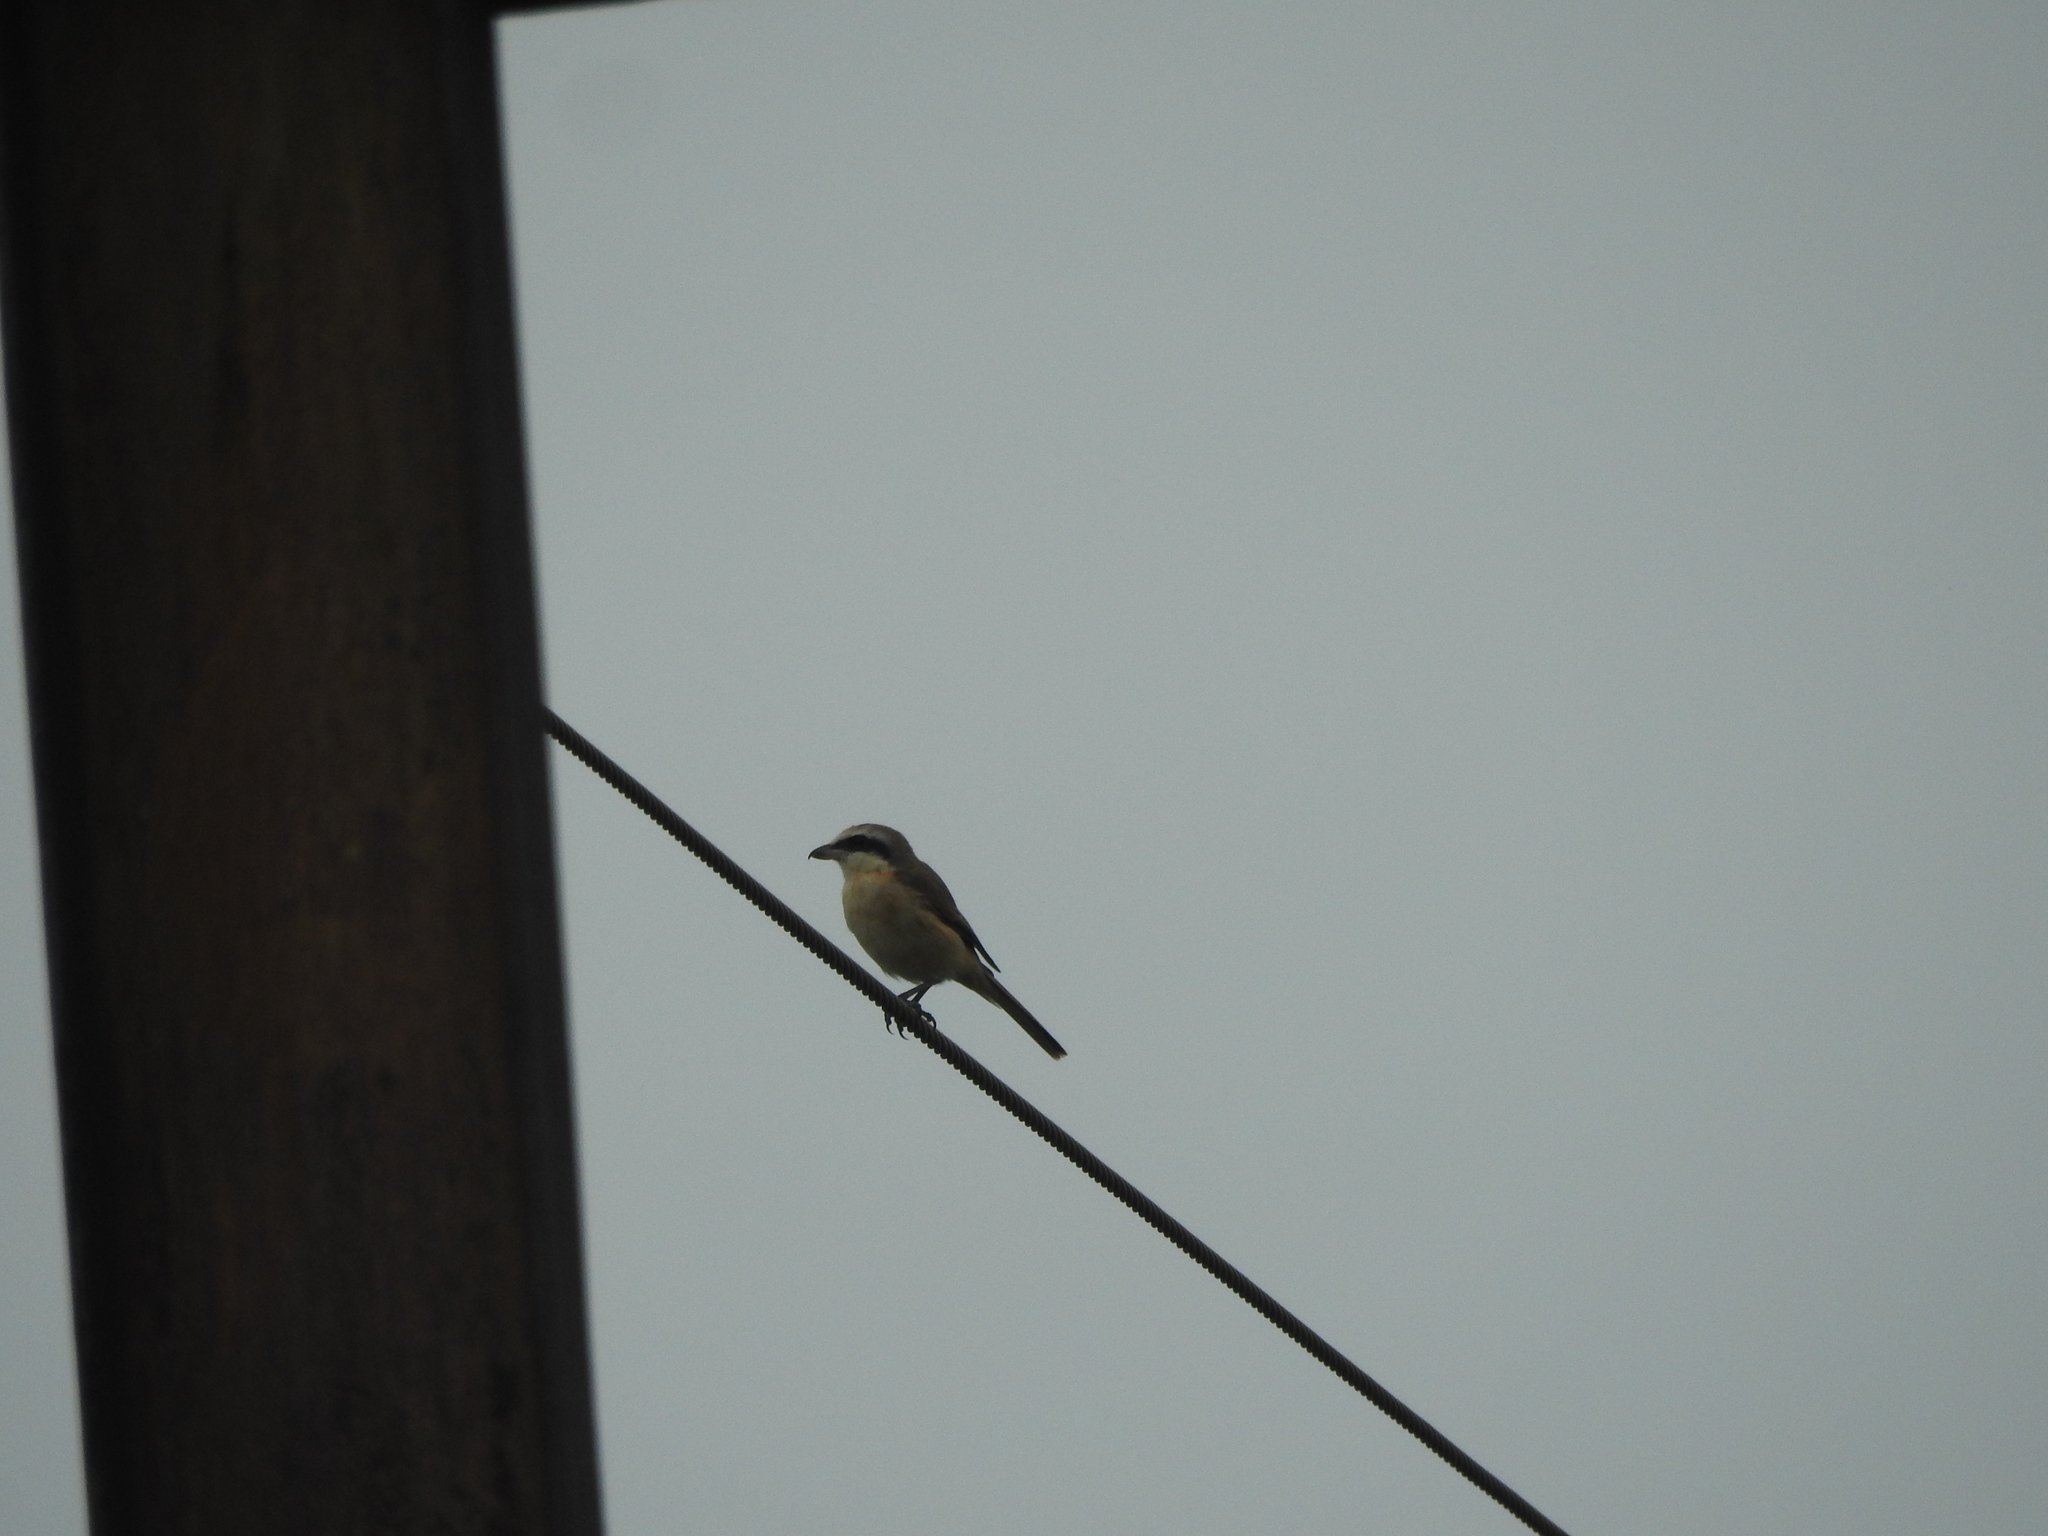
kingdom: Animalia
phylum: Chordata
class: Aves
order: Passeriformes
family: Laniidae
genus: Lanius
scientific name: Lanius cristatus
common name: Brown shrike
